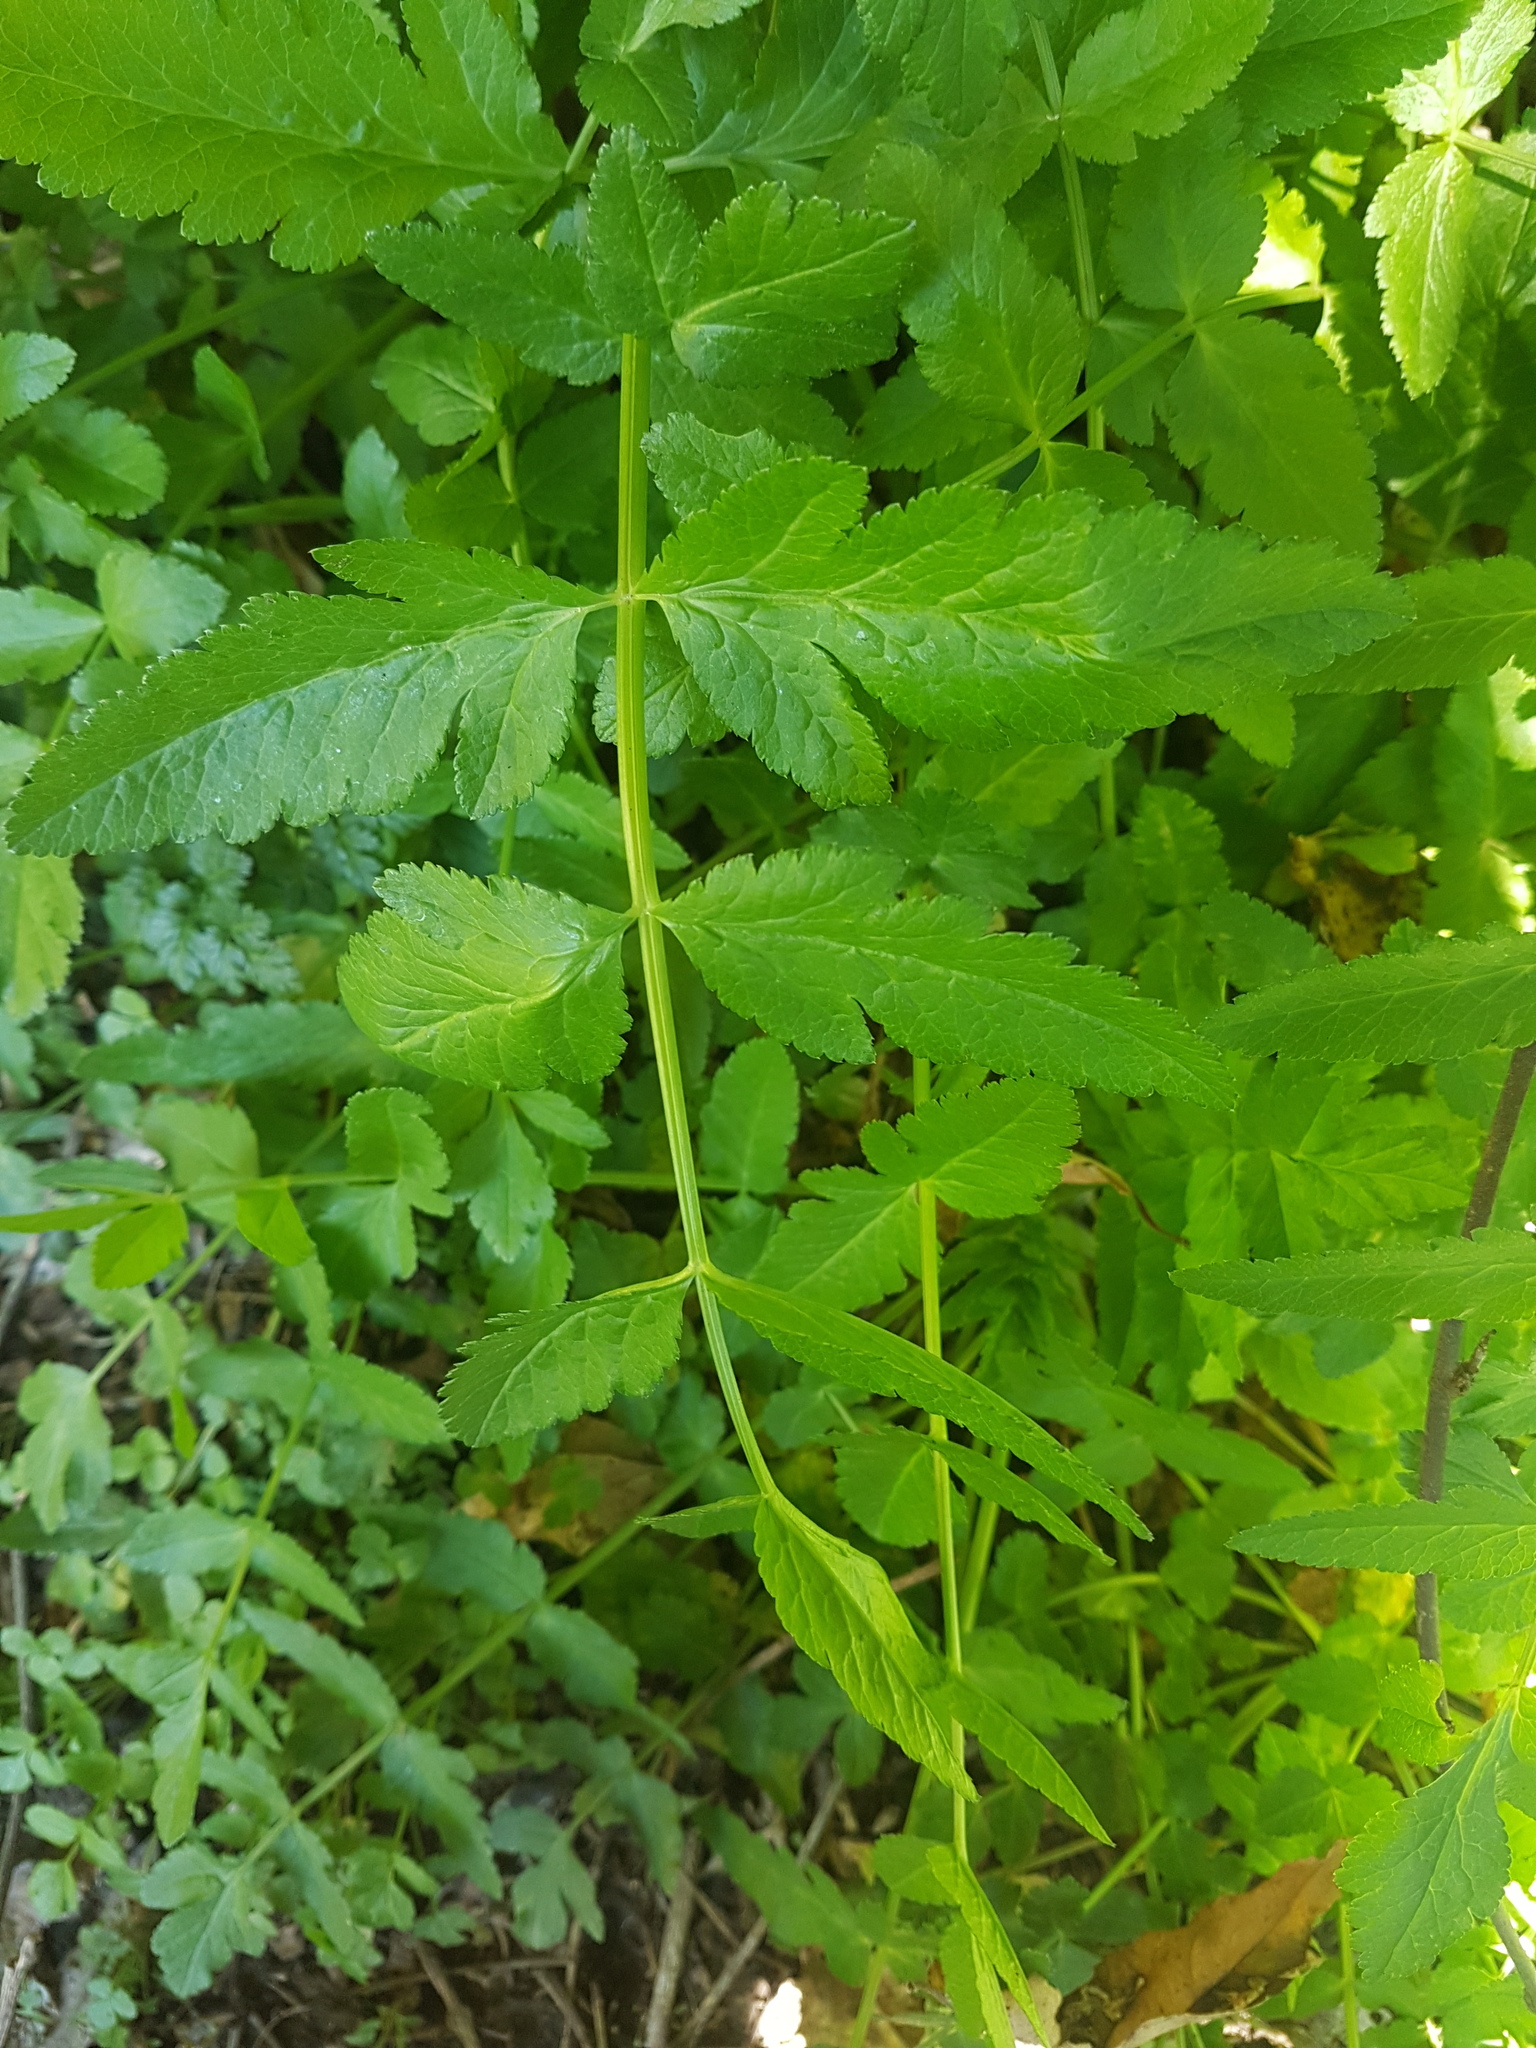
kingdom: Plantae
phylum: Tracheophyta
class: Magnoliopsida
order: Apiales
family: Apiaceae
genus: Sison
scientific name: Sison amomum
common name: Stone-parsley
